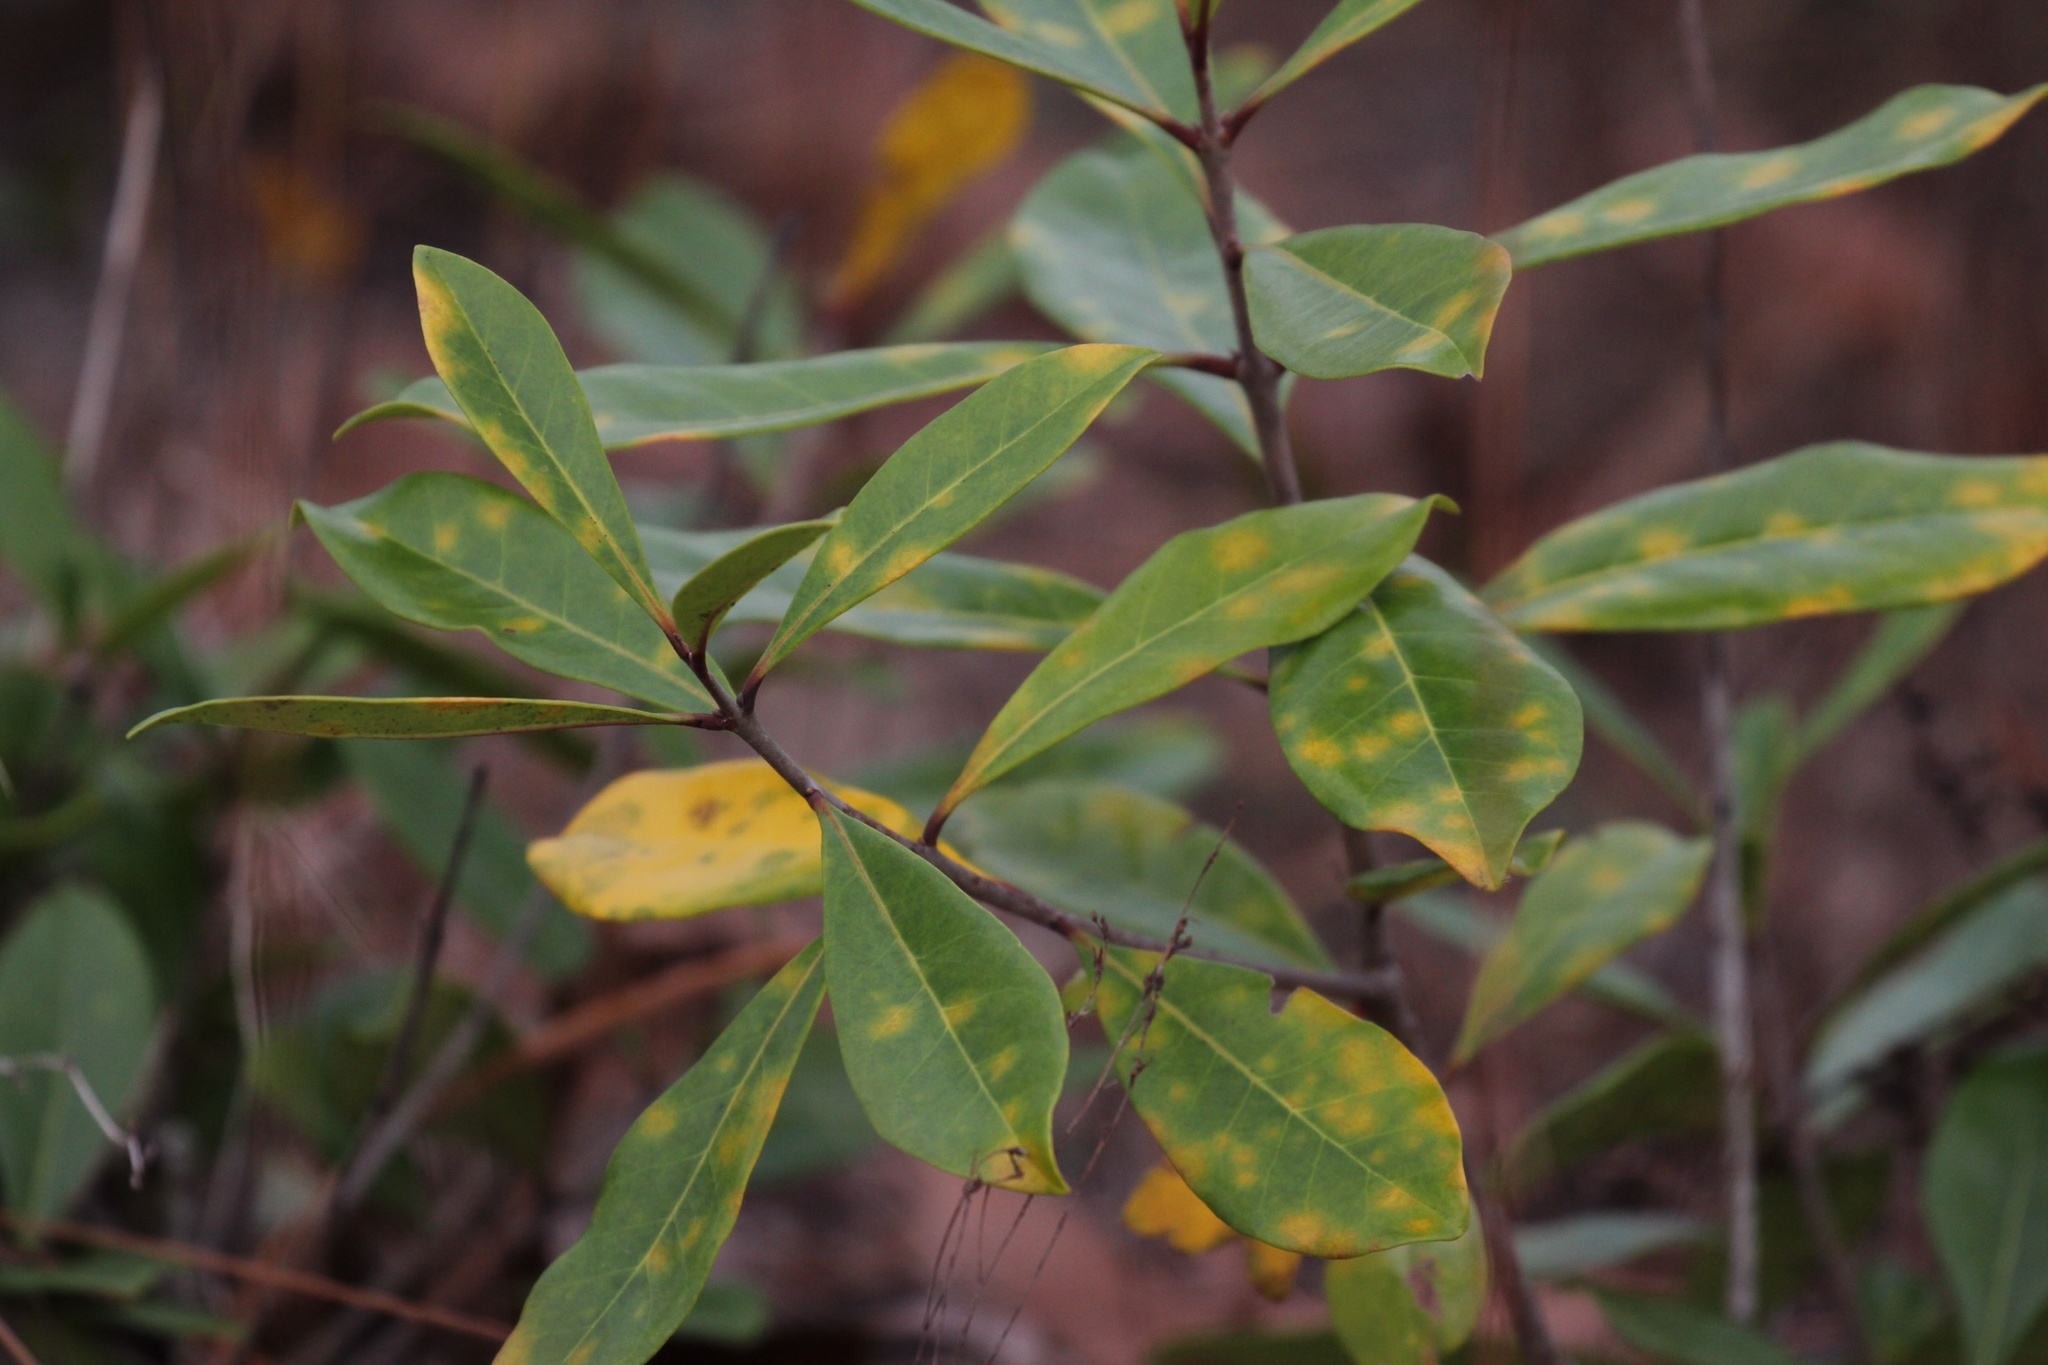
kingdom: Plantae
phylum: Tracheophyta
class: Magnoliopsida
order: Lamiales
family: Oleaceae
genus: Cartrema
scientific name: Cartrema americana
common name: Devilwood
